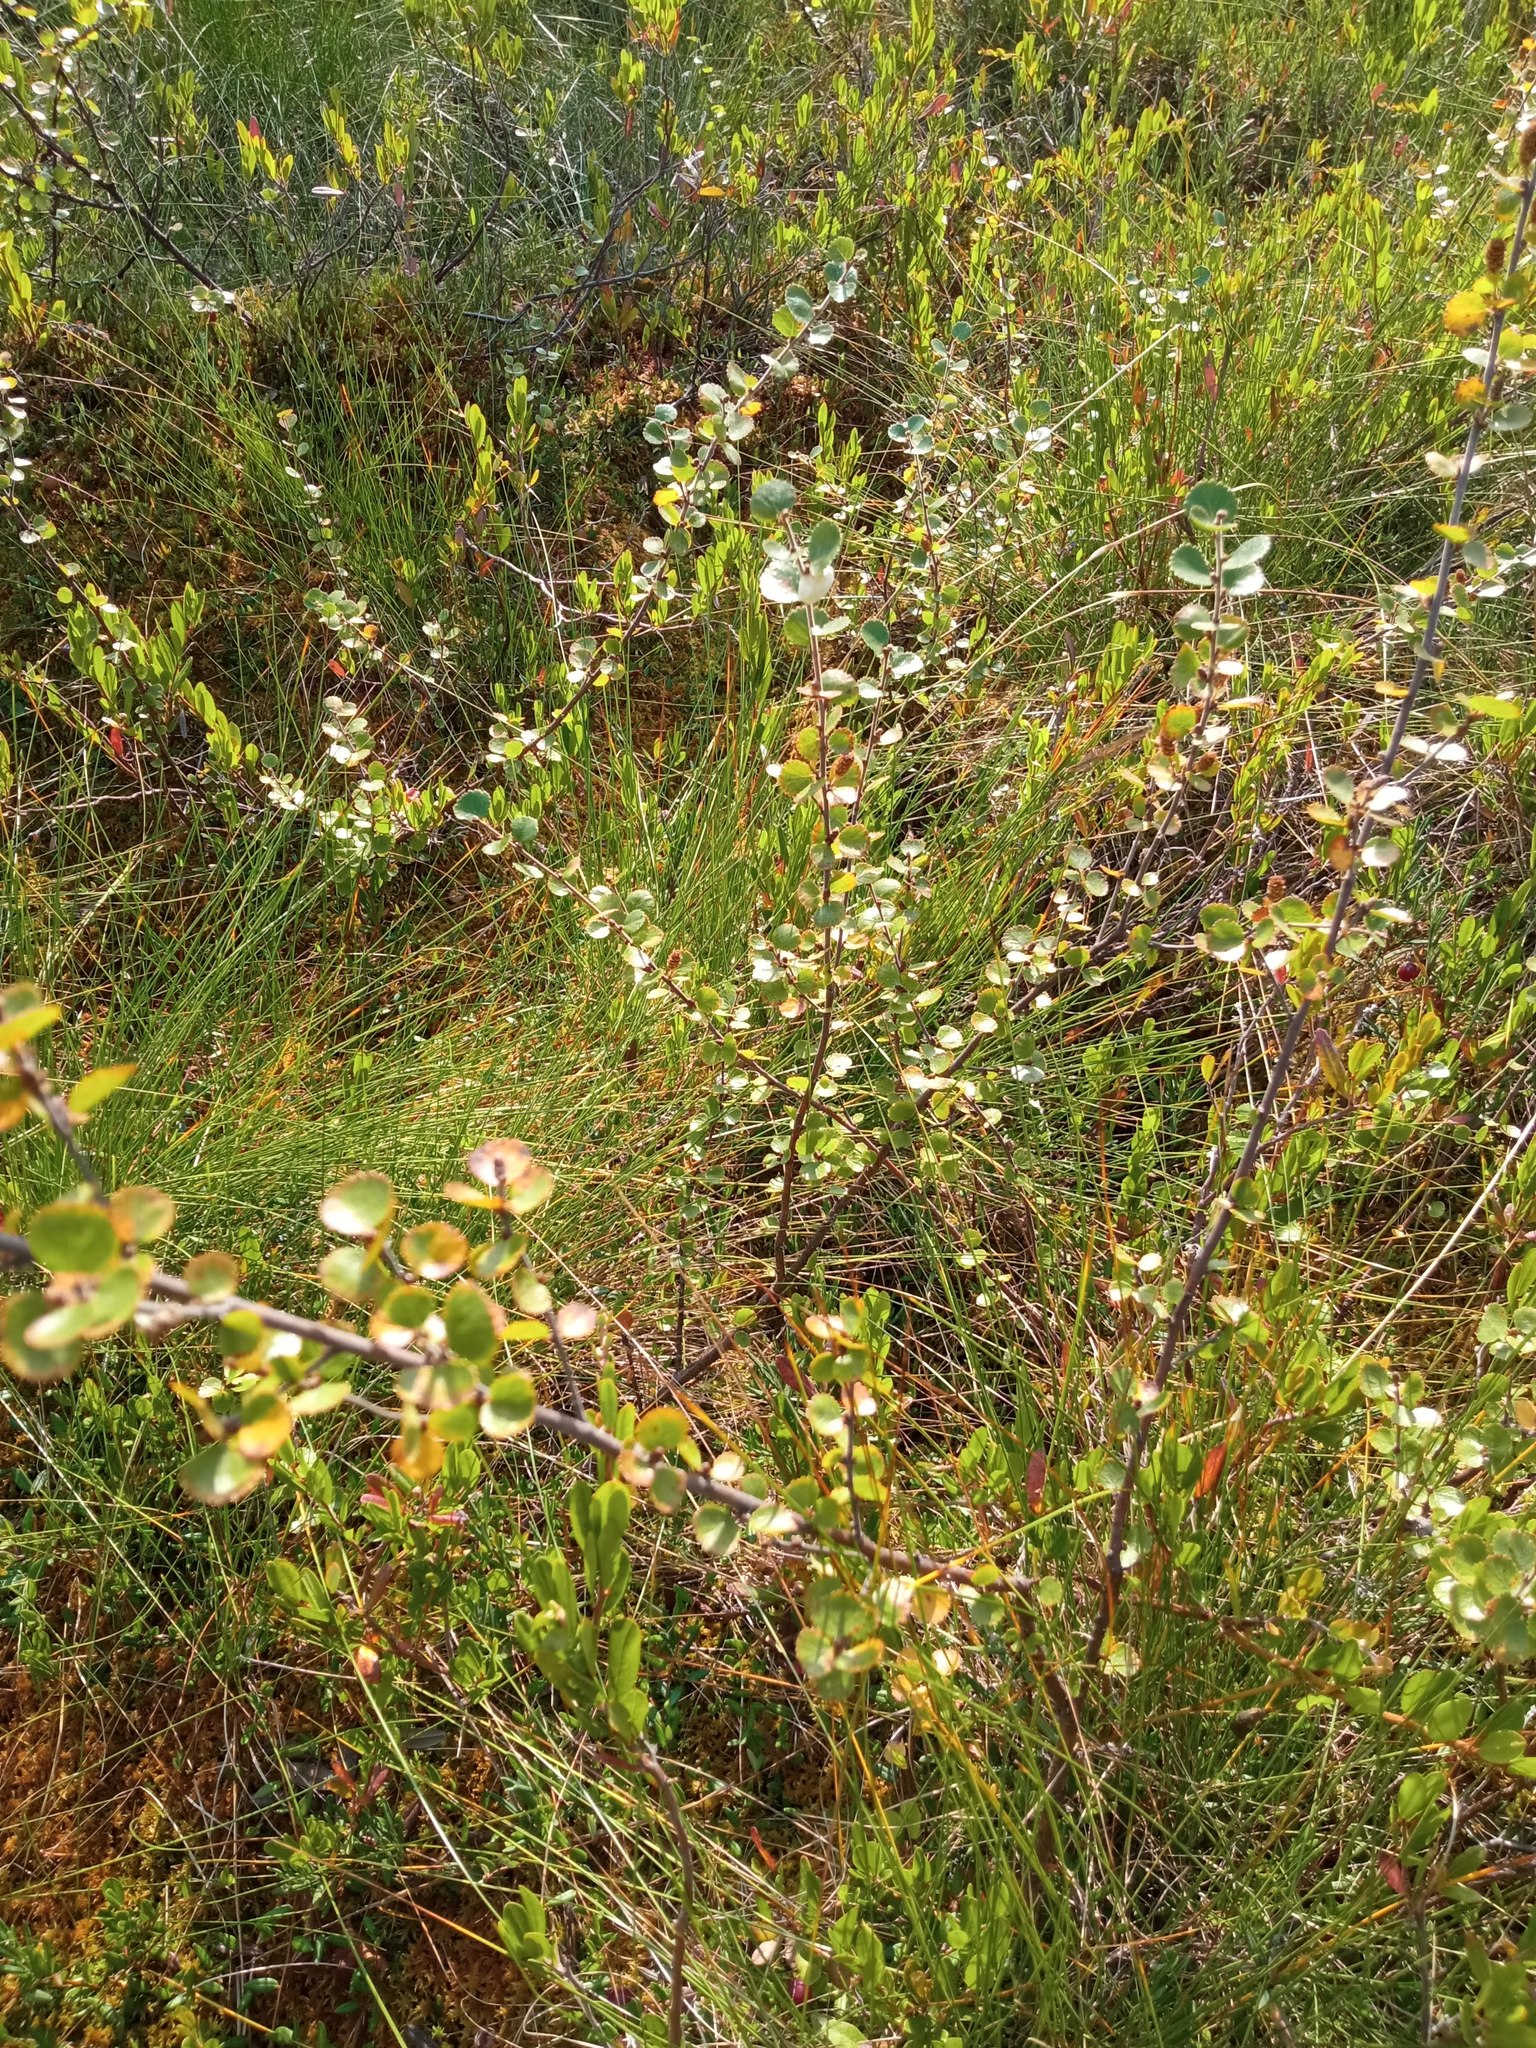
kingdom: Plantae
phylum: Tracheophyta
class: Magnoliopsida
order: Fagales
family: Betulaceae
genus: Betula
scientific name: Betula nana
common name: Arctic dwarf birch
